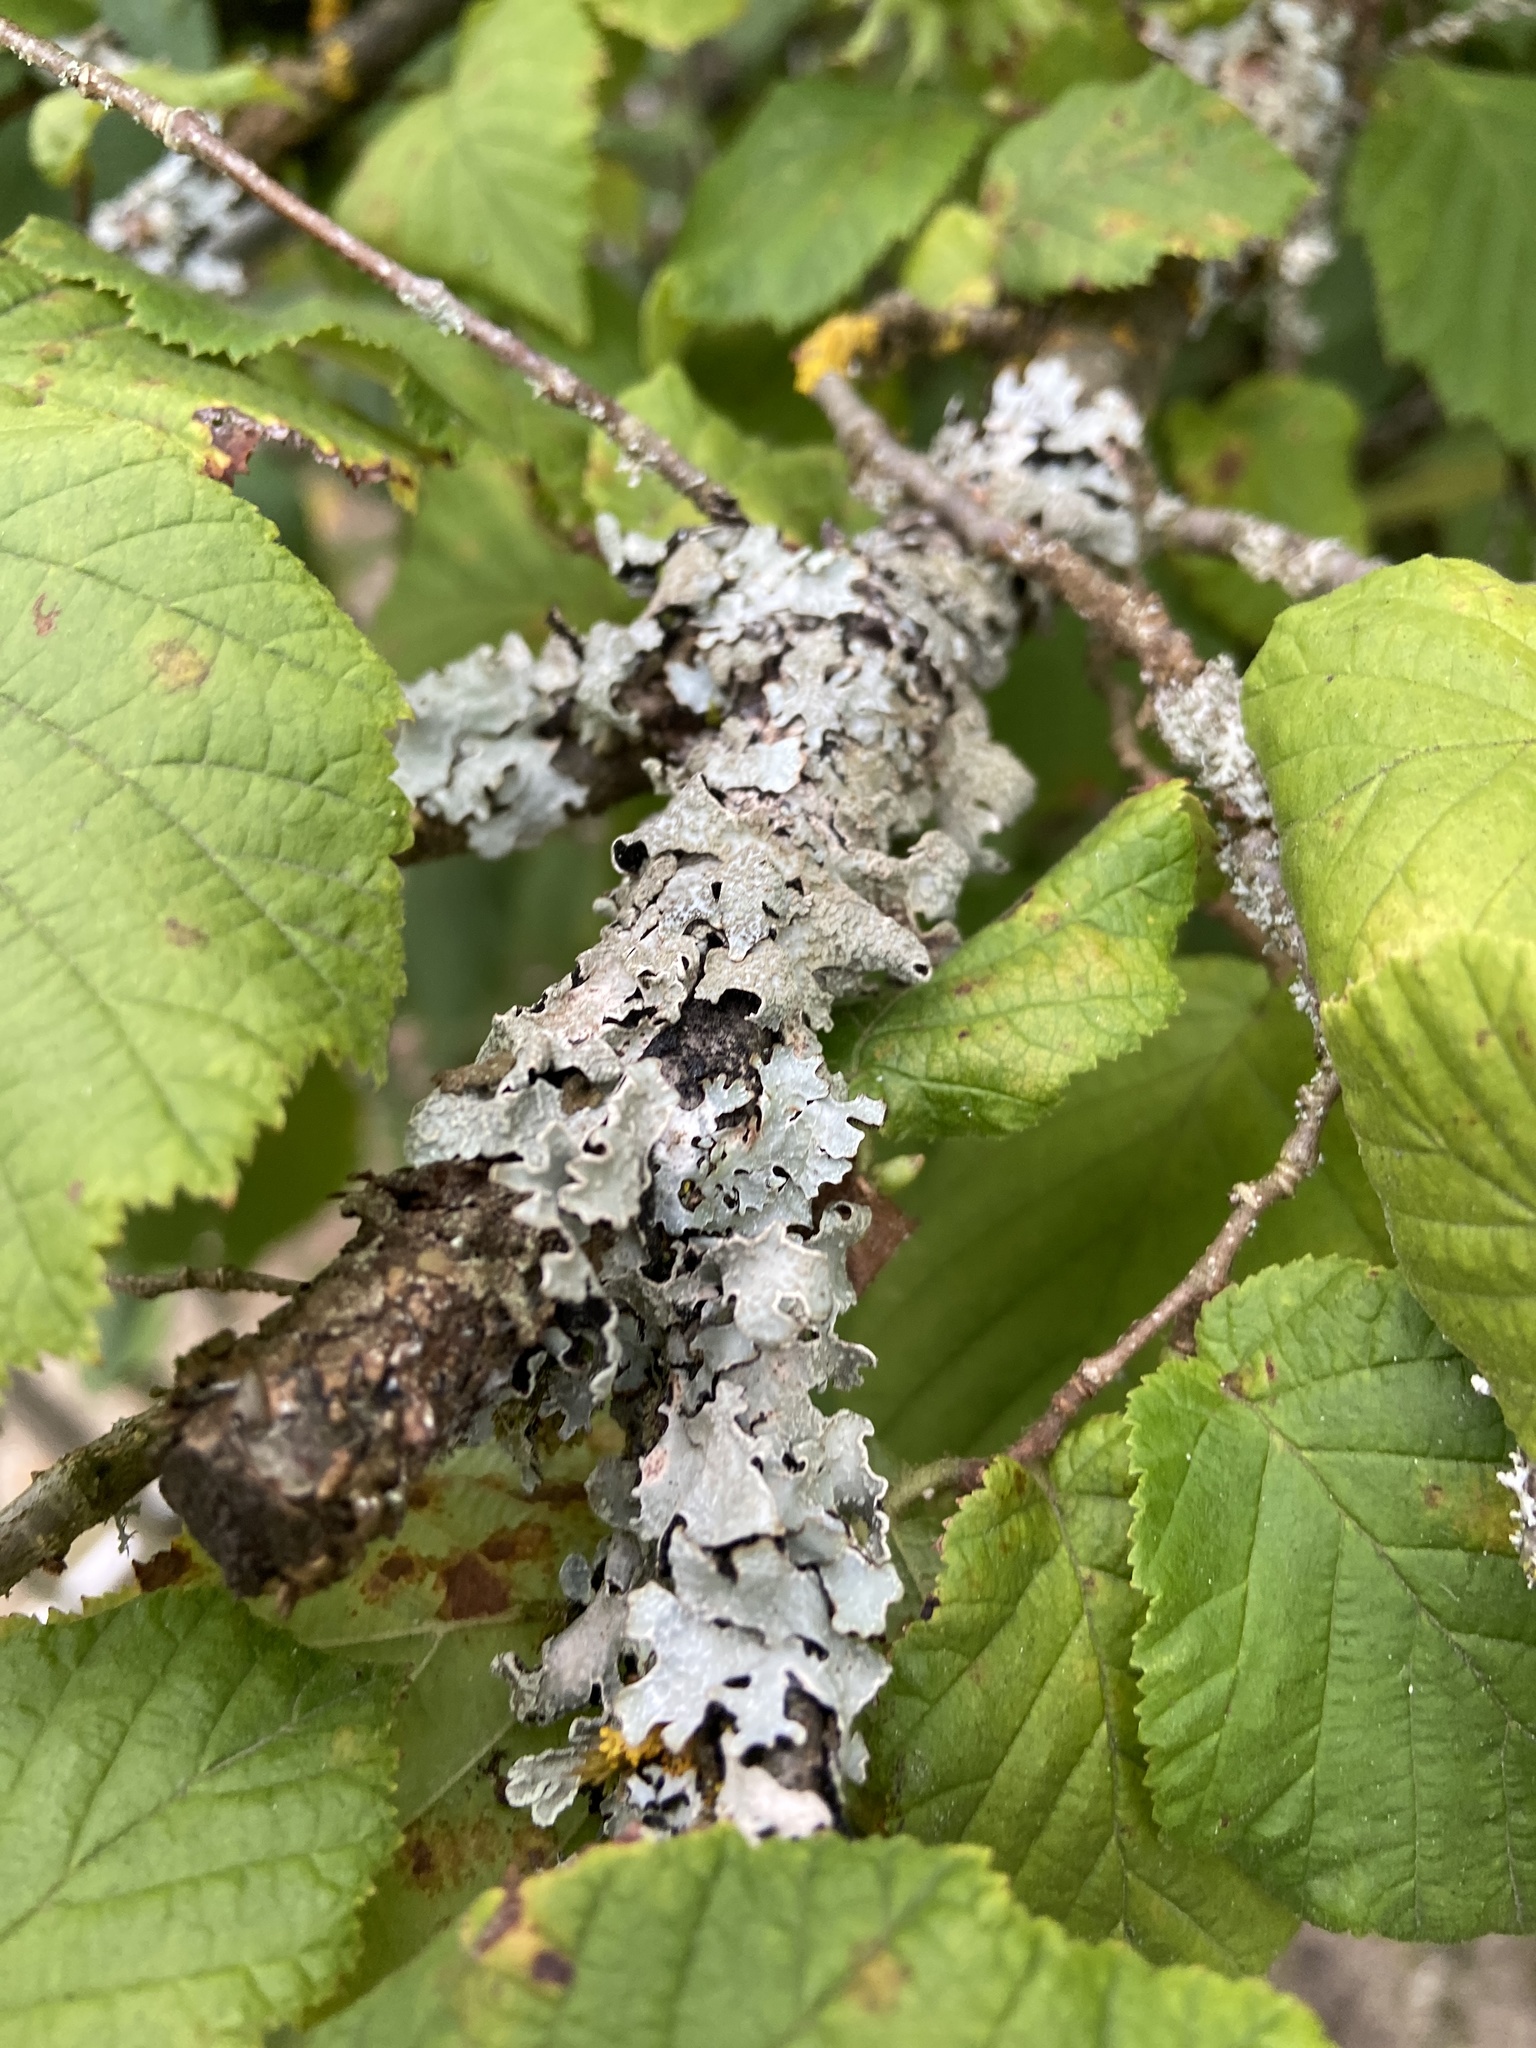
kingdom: Fungi
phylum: Ascomycota
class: Lecanoromycetes
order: Lecanorales
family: Parmeliaceae
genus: Parmelia
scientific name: Parmelia sulcata
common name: Netted shield lichen
